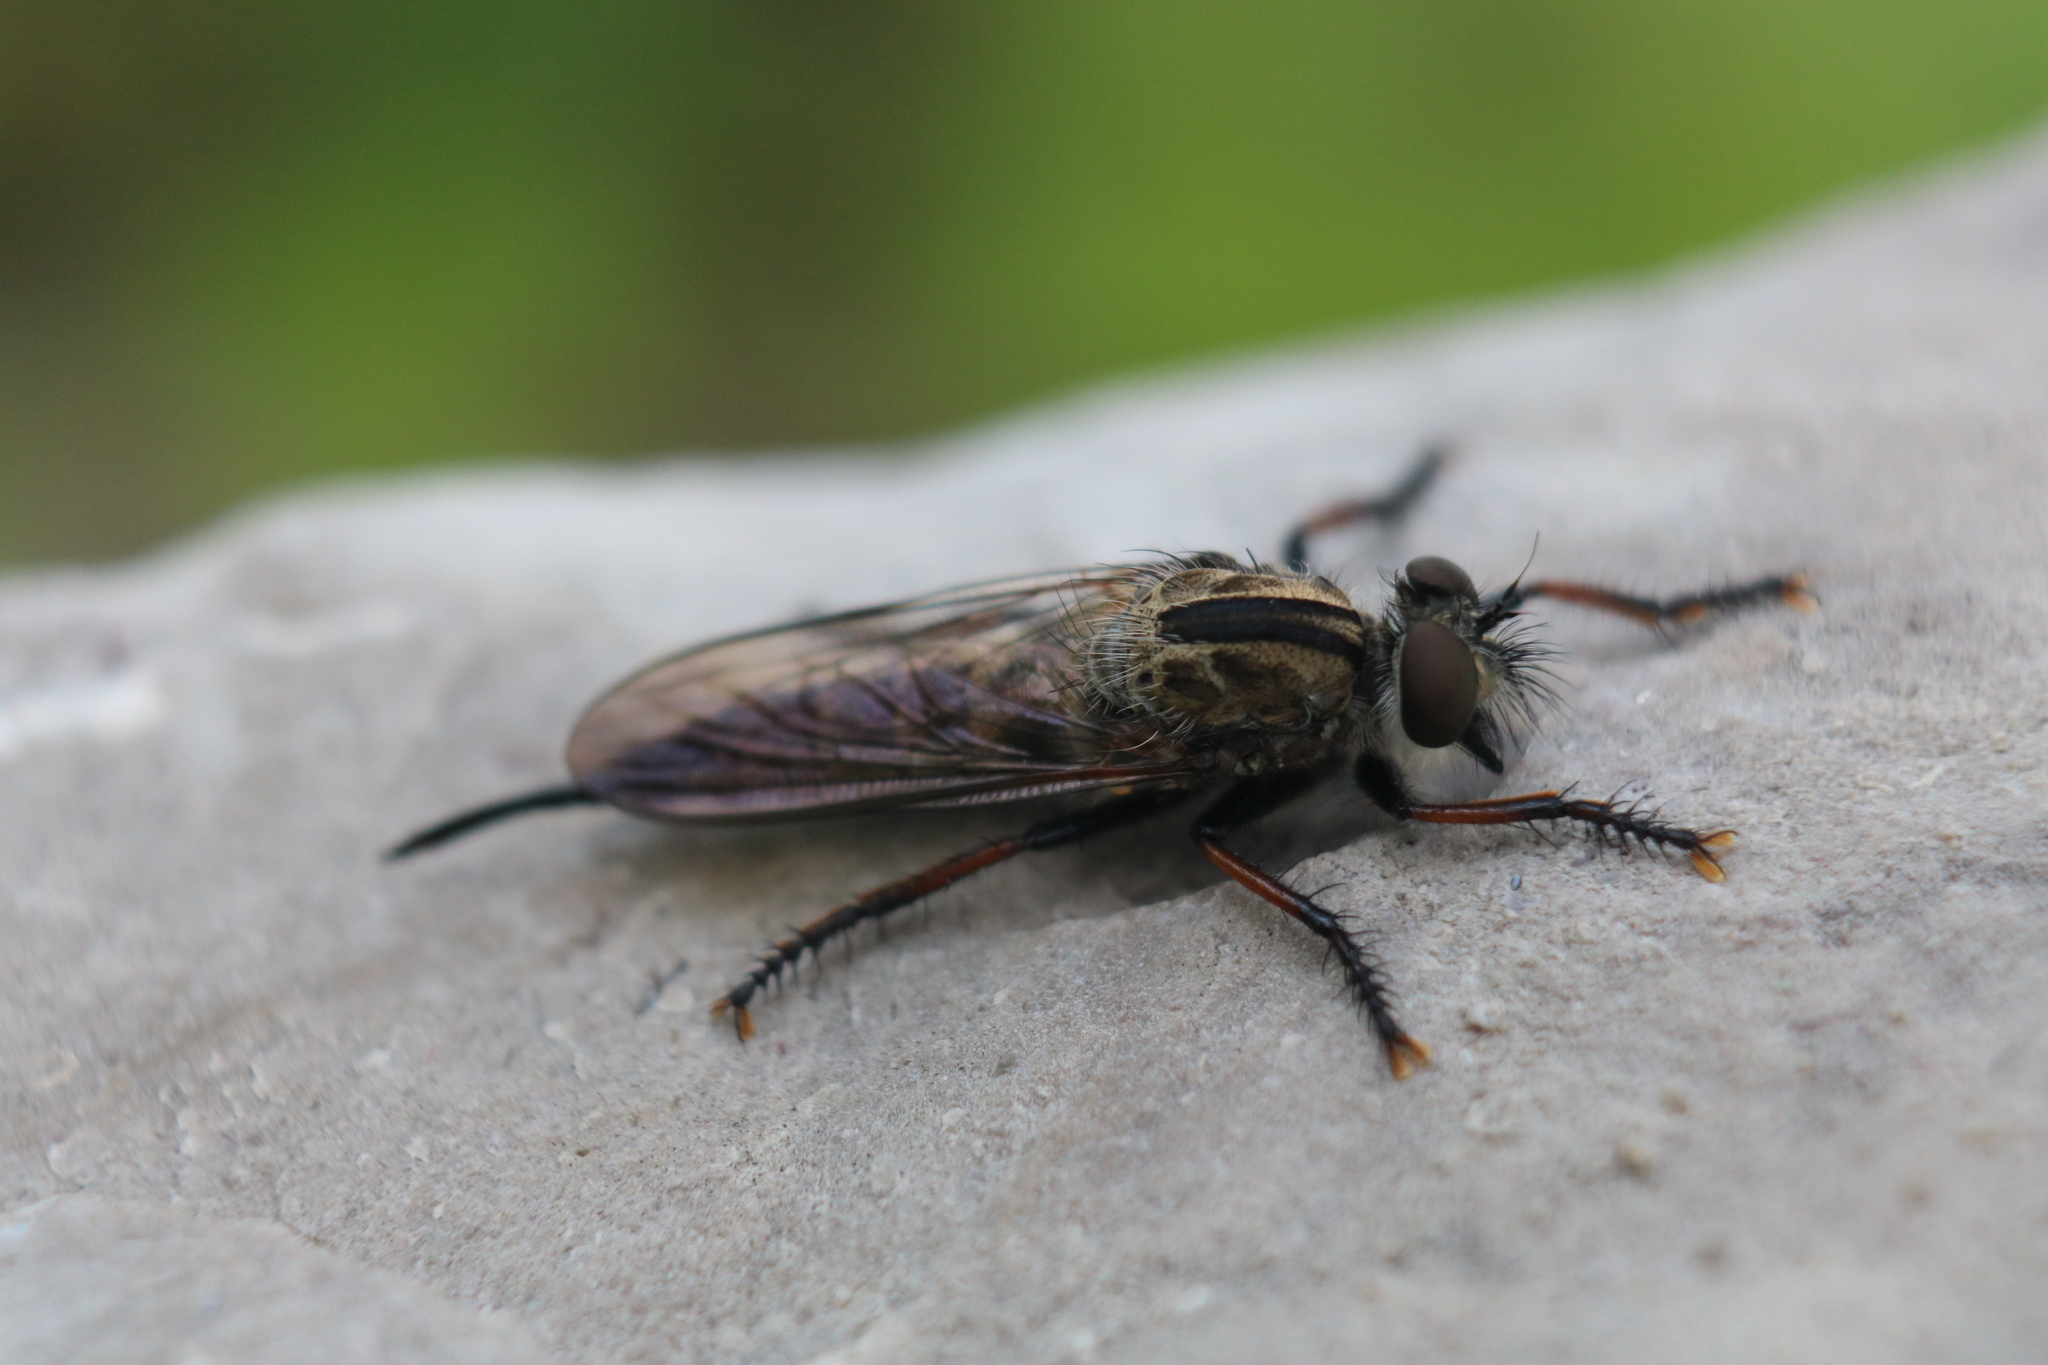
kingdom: Animalia
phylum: Arthropoda
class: Insecta
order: Diptera
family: Asilidae
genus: Efferia
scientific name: Efferia aestuans
